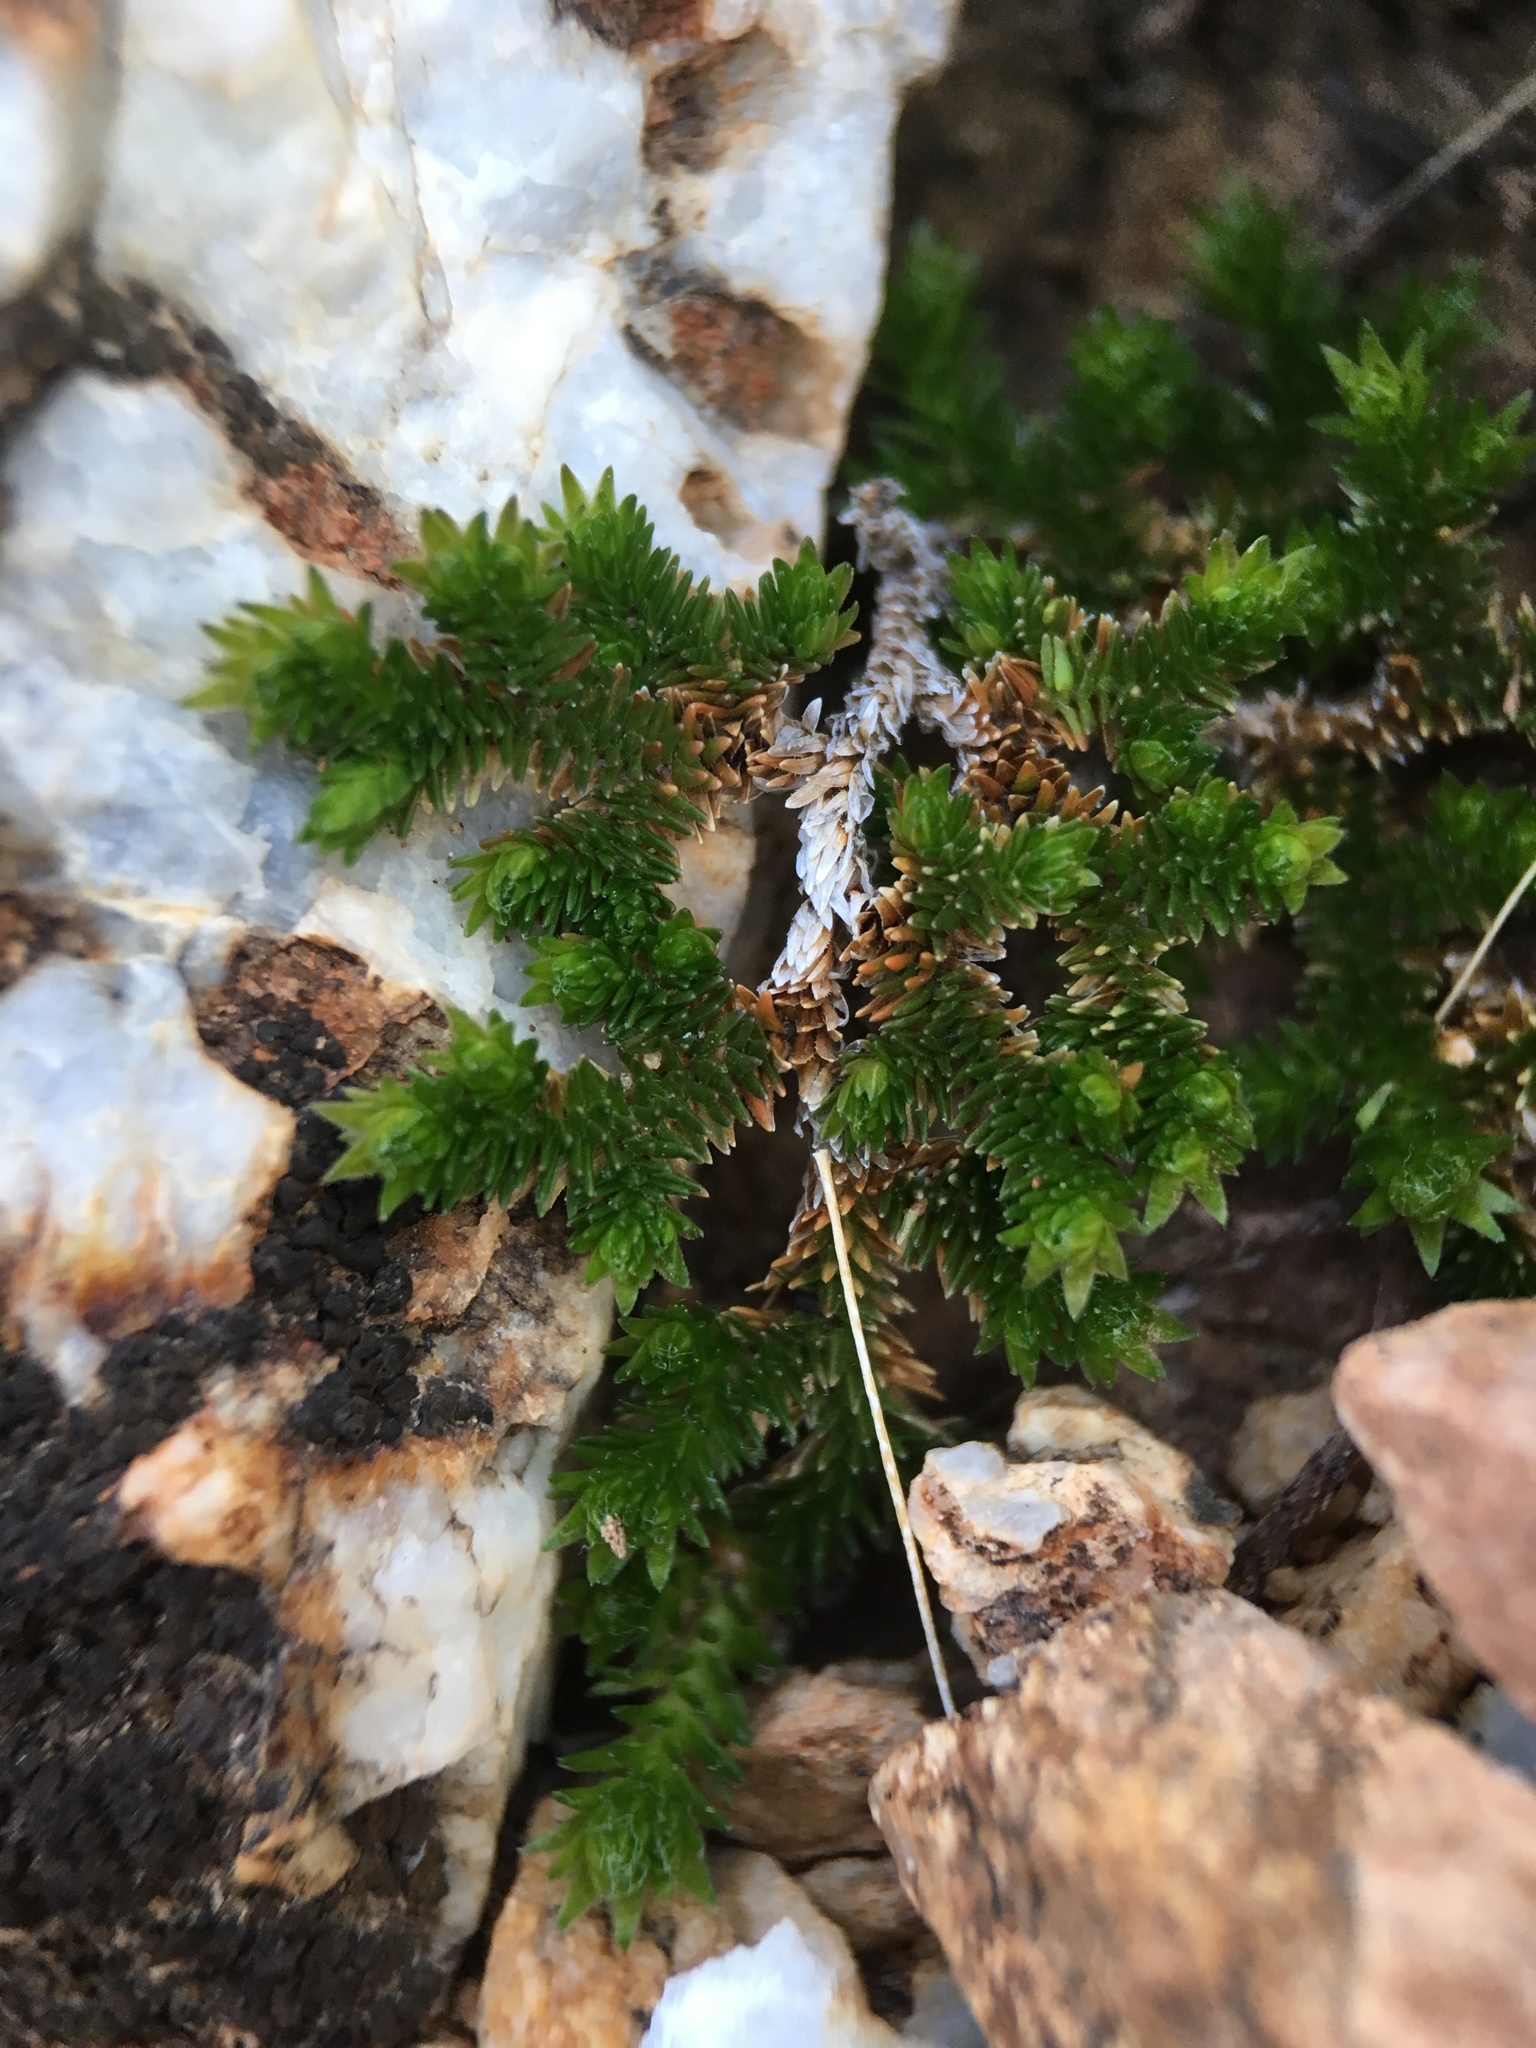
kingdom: Plantae
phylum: Tracheophyta
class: Lycopodiopsida
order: Selaginellales
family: Selaginellaceae
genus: Selaginella
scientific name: Selaginella eremophila
